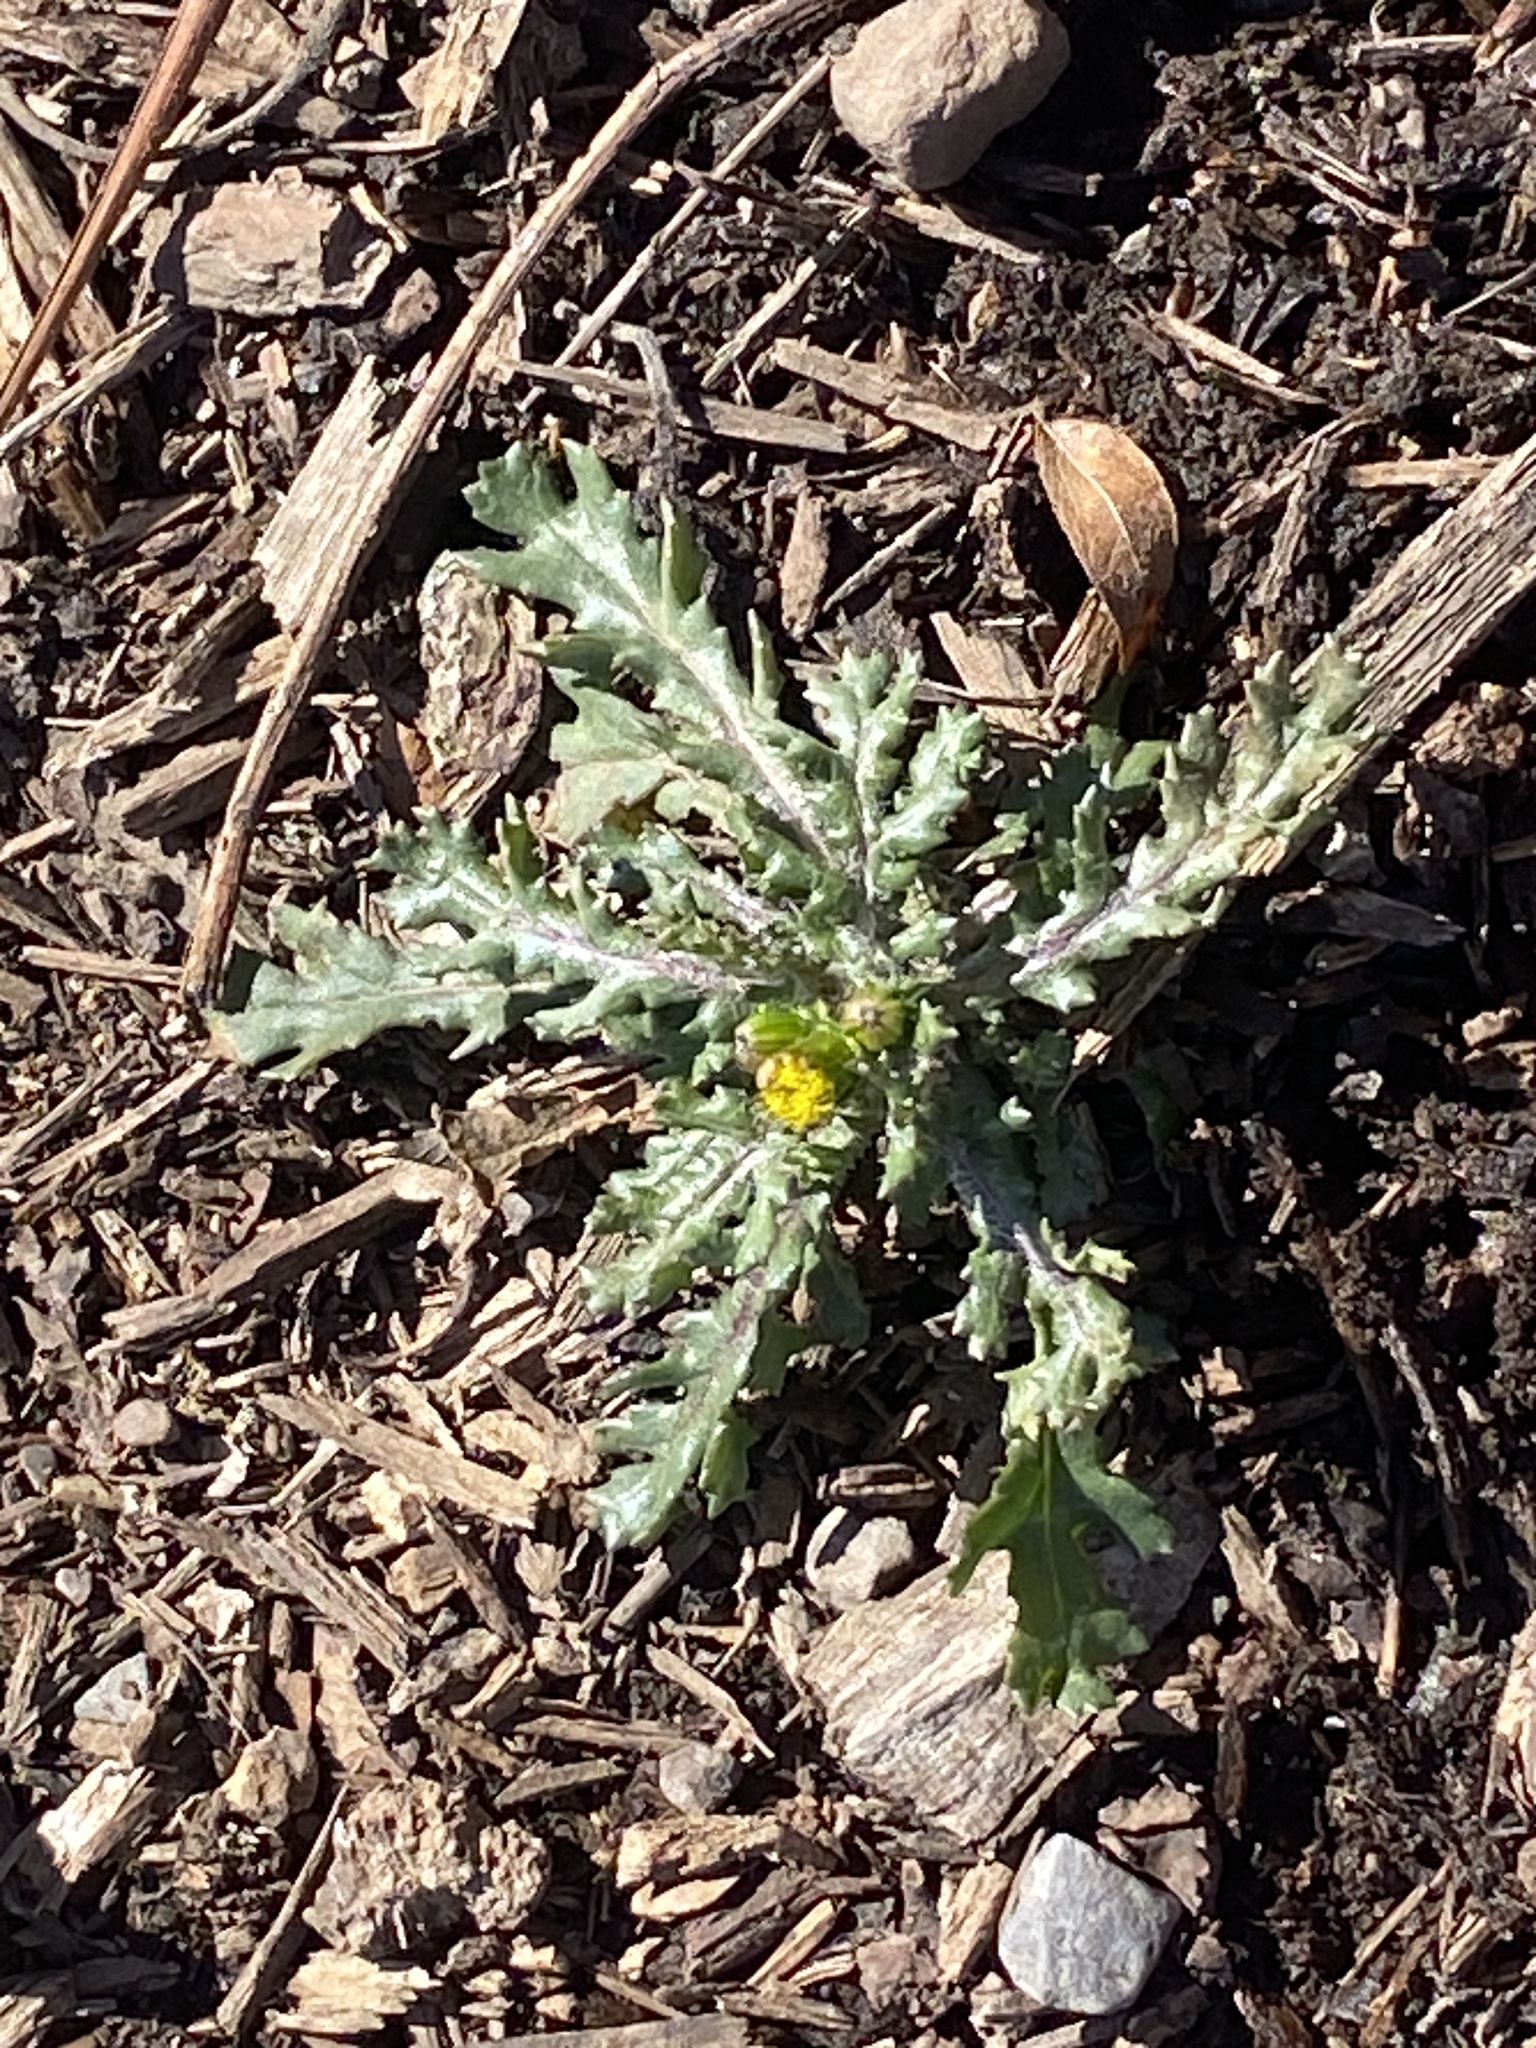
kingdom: Plantae
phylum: Tracheophyta
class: Magnoliopsida
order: Asterales
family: Asteraceae
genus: Senecio
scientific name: Senecio vulgaris
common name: Old-man-in-the-spring
